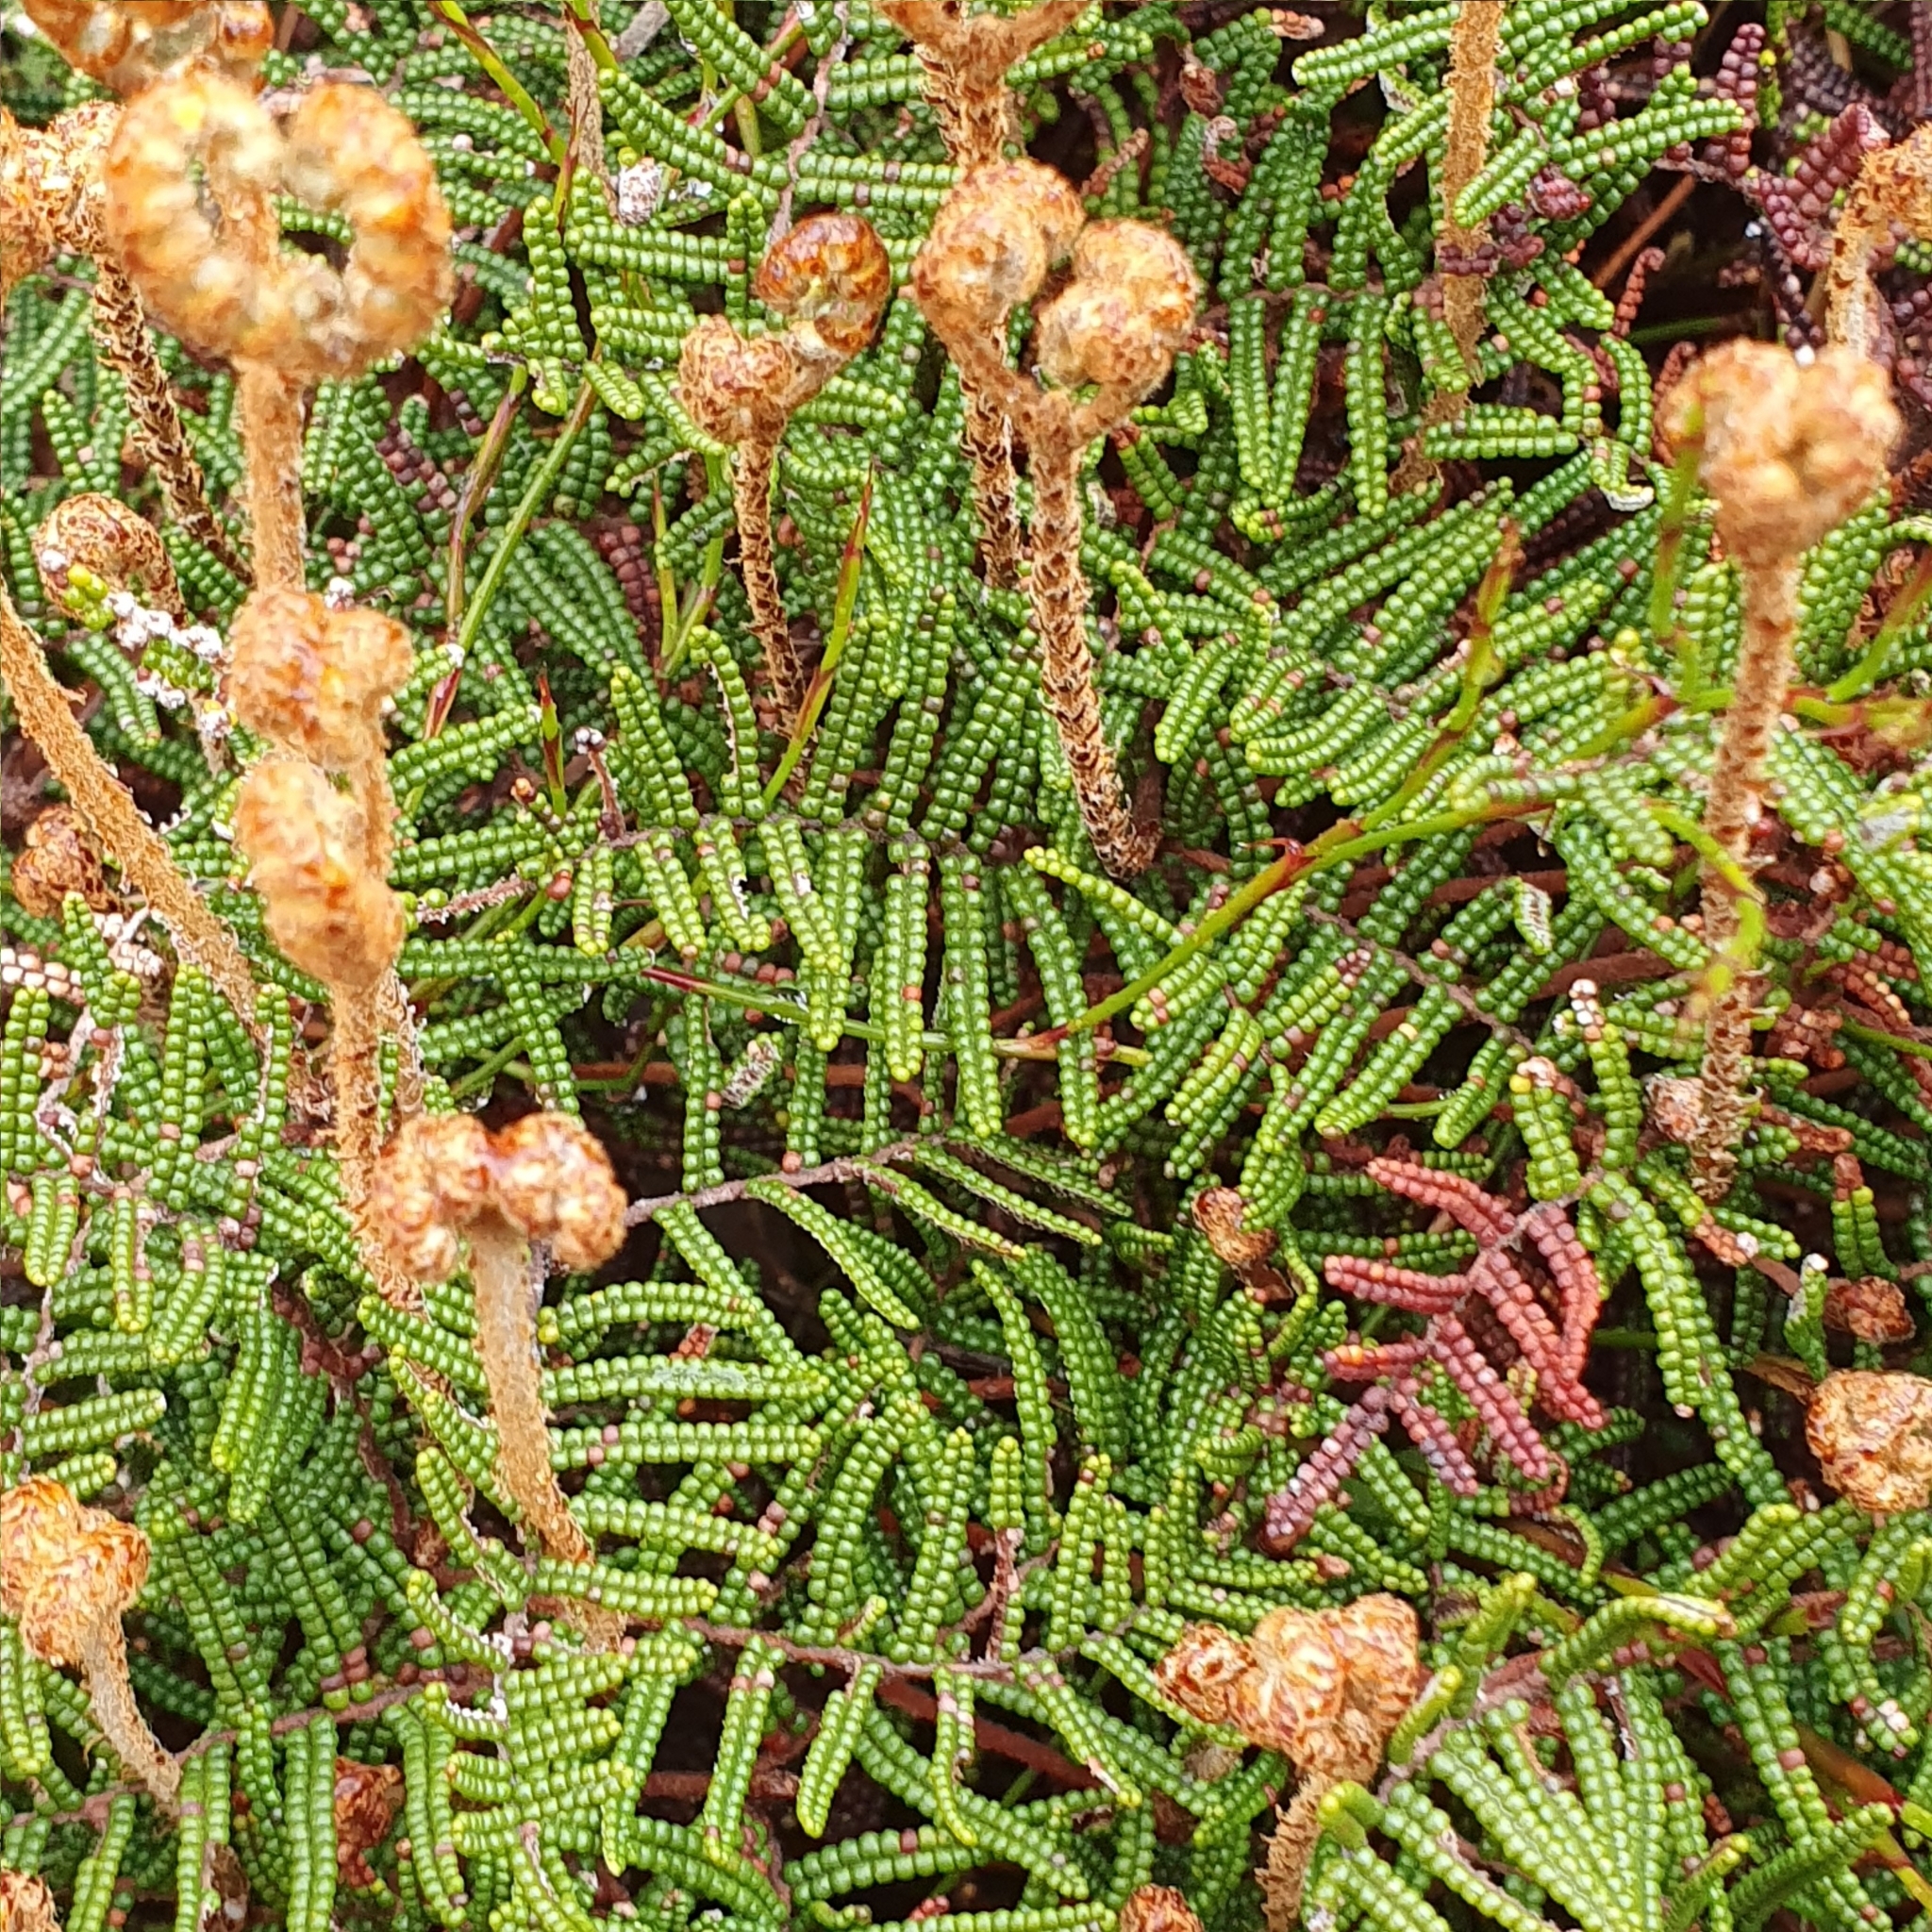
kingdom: Plantae
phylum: Tracheophyta
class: Polypodiopsida
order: Gleicheniales
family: Gleicheniaceae
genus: Gleichenia
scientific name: Gleichenia alpina
